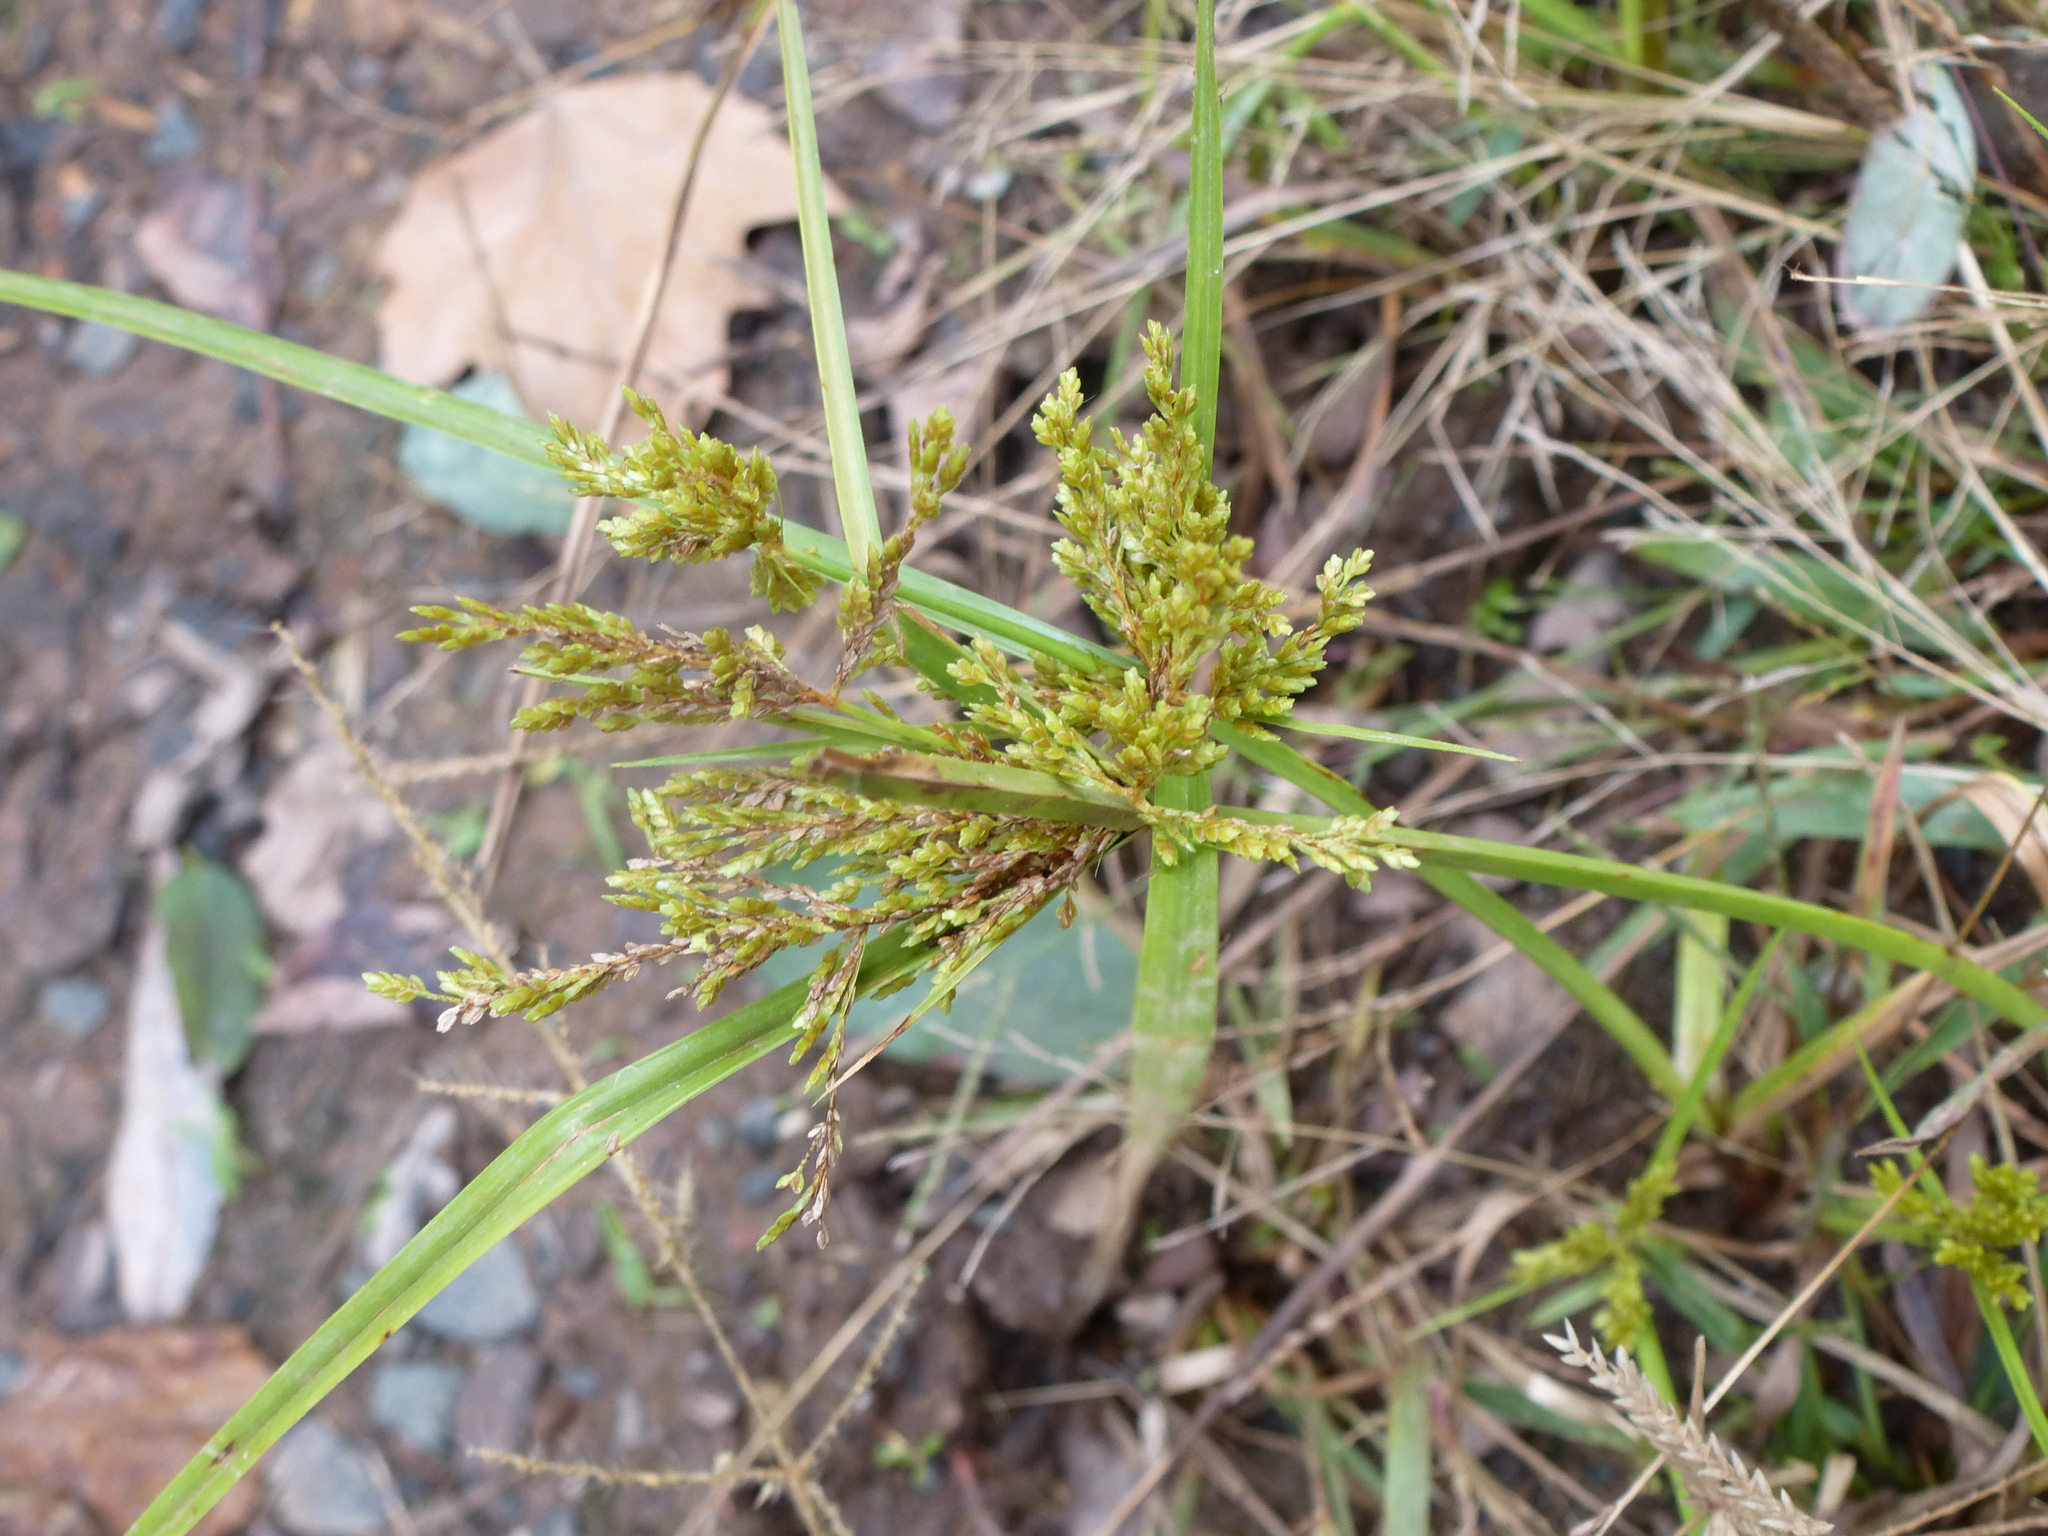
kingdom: Plantae
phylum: Tracheophyta
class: Liliopsida
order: Poales
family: Cyperaceae
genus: Cyperus
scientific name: Cyperus iria
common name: Ricefield flatsedge
